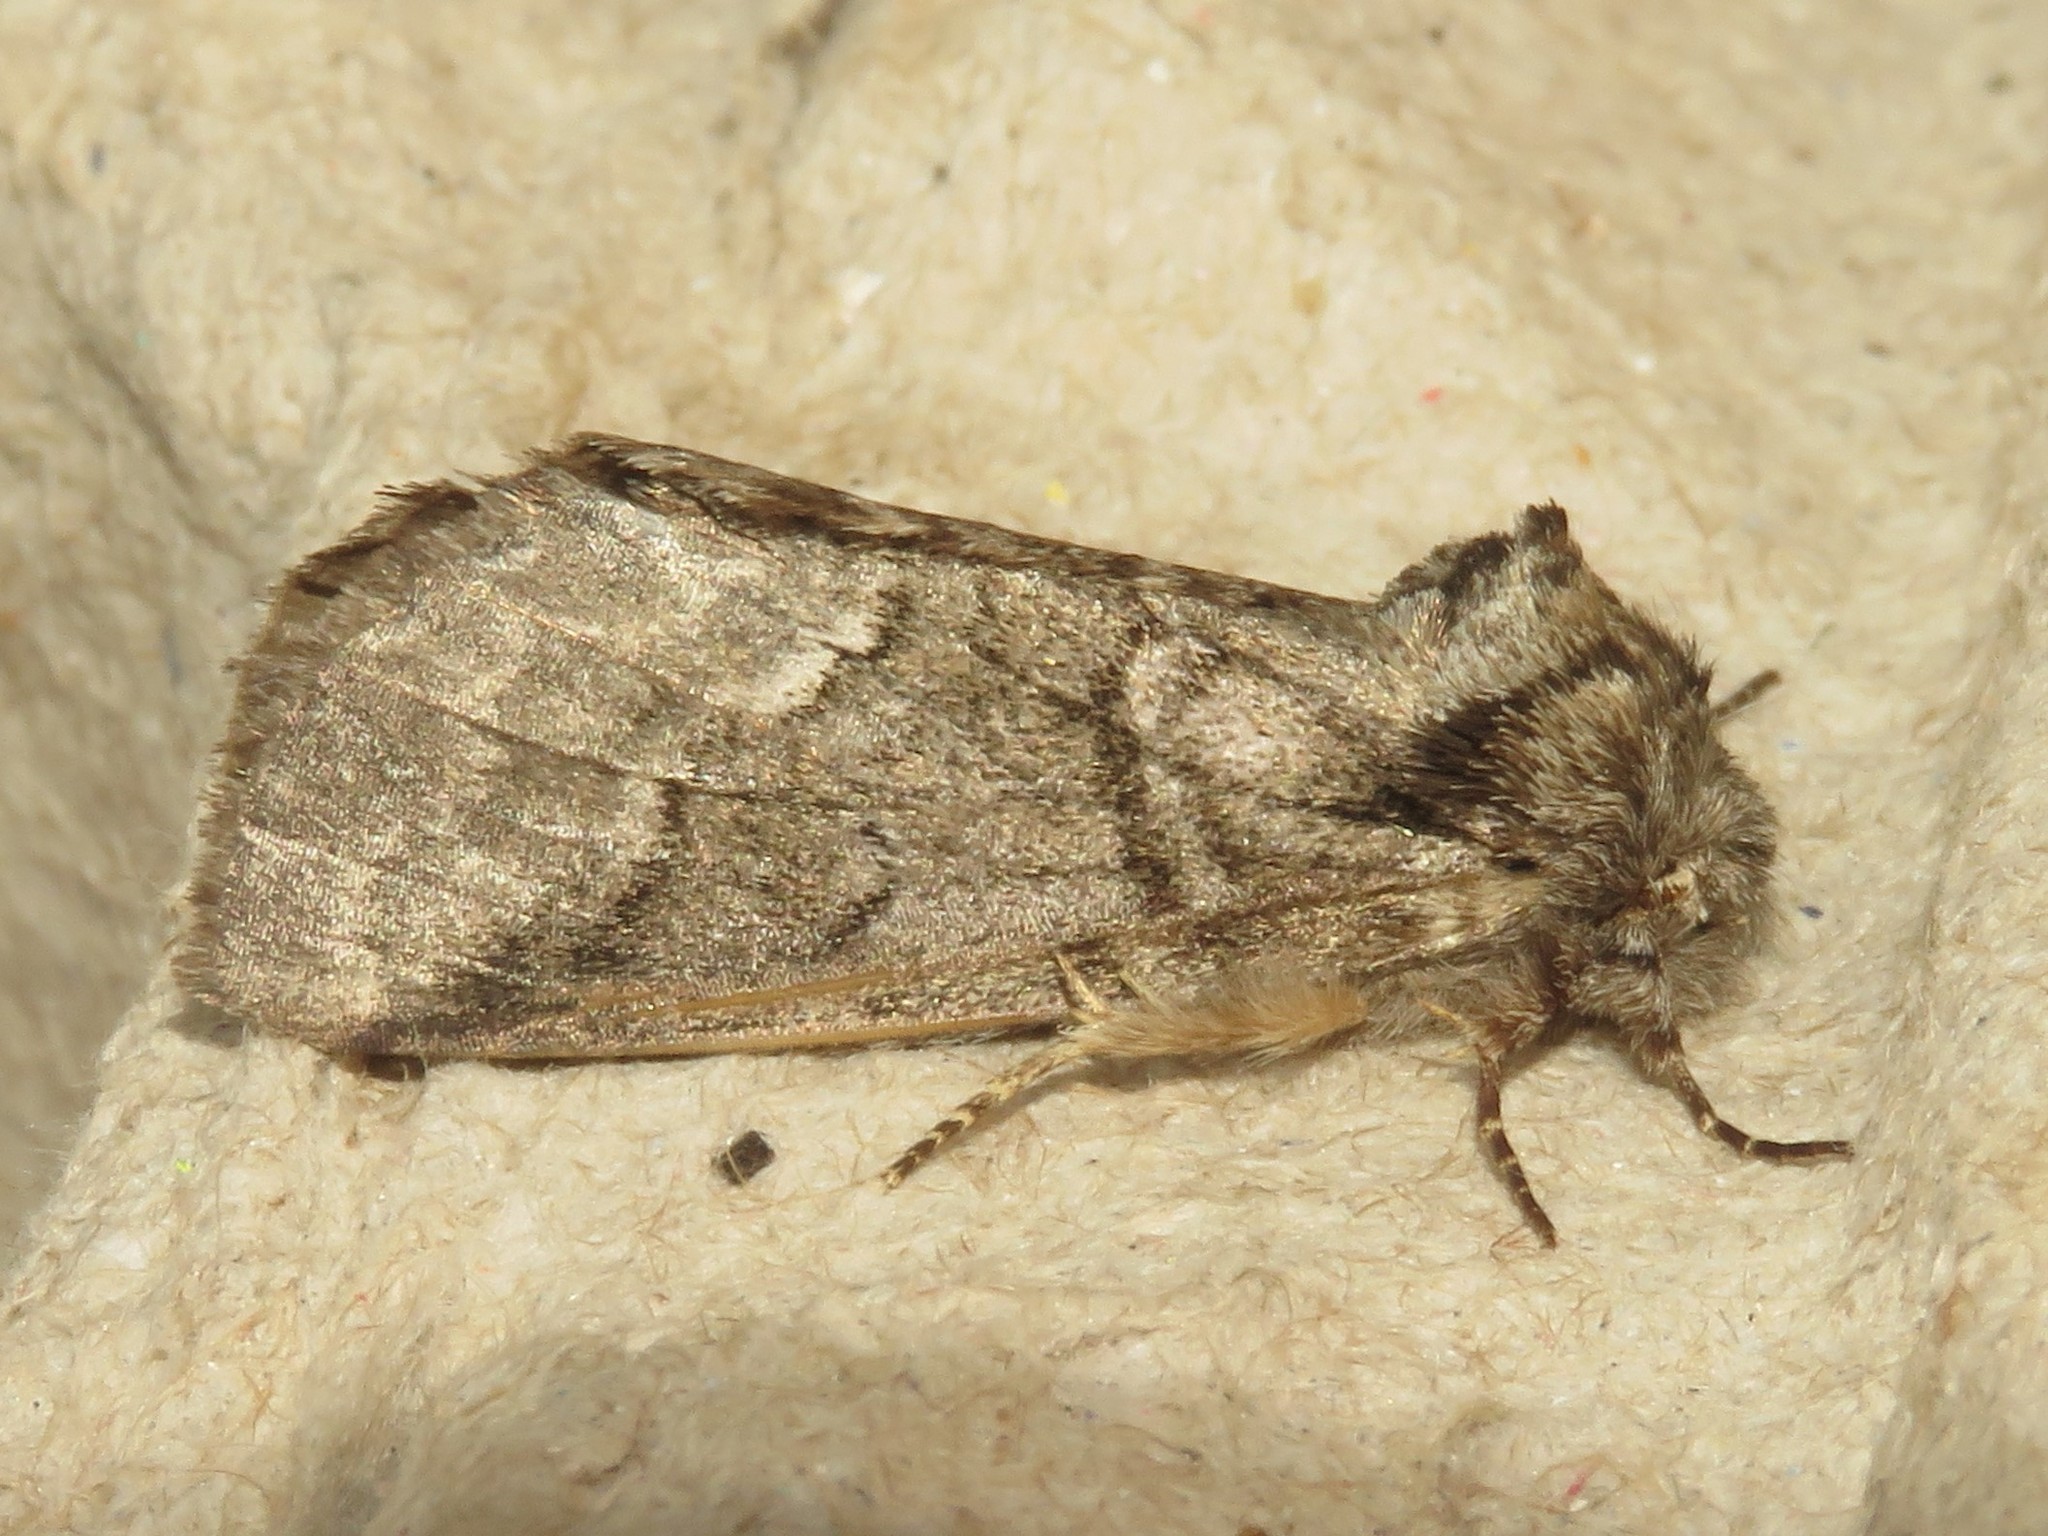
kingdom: Animalia
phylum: Arthropoda
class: Insecta
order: Lepidoptera
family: Notodontidae
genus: Lochmaeus
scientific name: Lochmaeus bilineata
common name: Double-lined prominent
